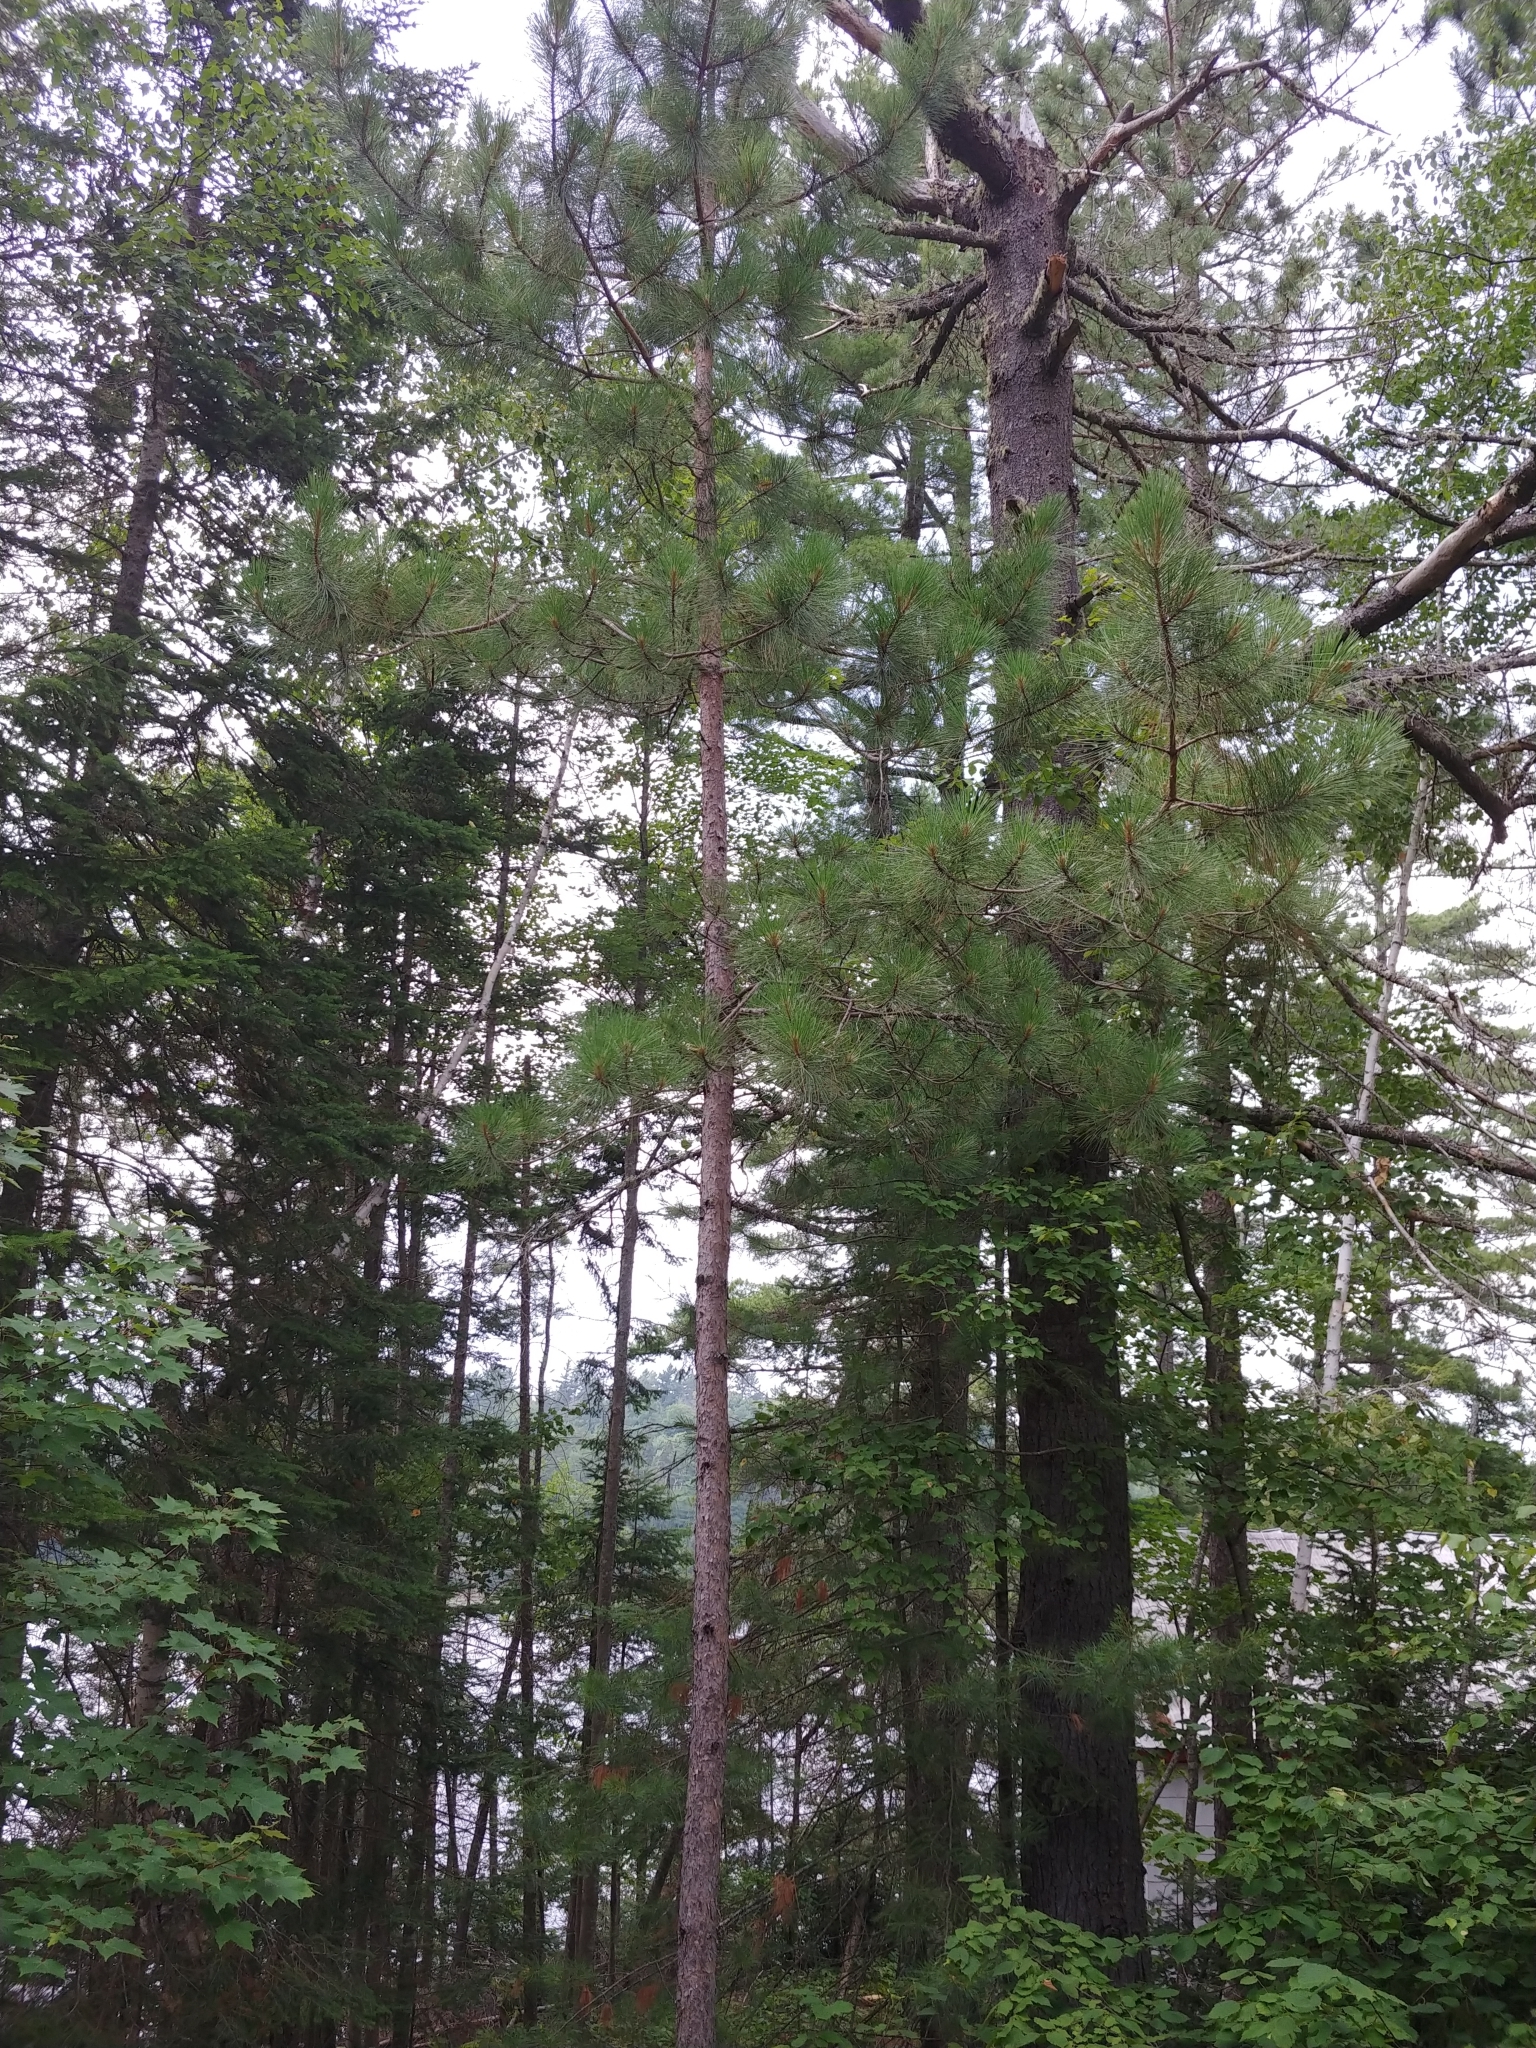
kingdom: Plantae
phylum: Tracheophyta
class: Pinopsida
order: Pinales
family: Pinaceae
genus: Pinus
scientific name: Pinus resinosa
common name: Norway pine
